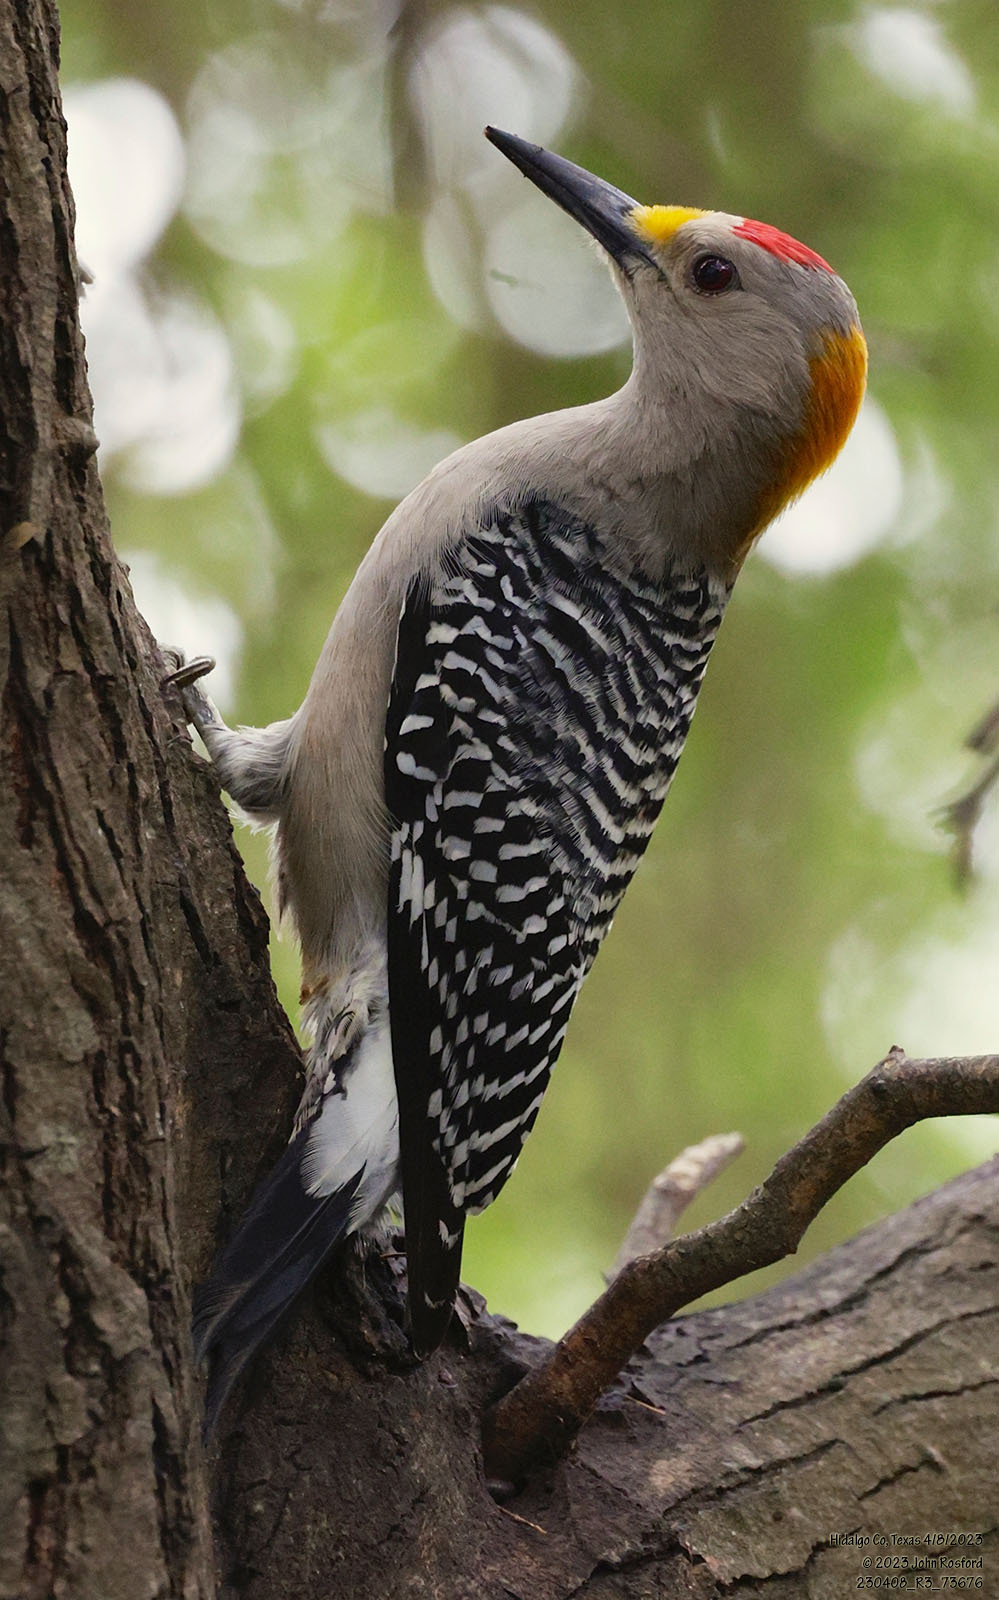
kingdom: Animalia
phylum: Chordata
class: Aves
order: Piciformes
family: Picidae
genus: Melanerpes
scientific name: Melanerpes aurifrons
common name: Golden-fronted woodpecker
